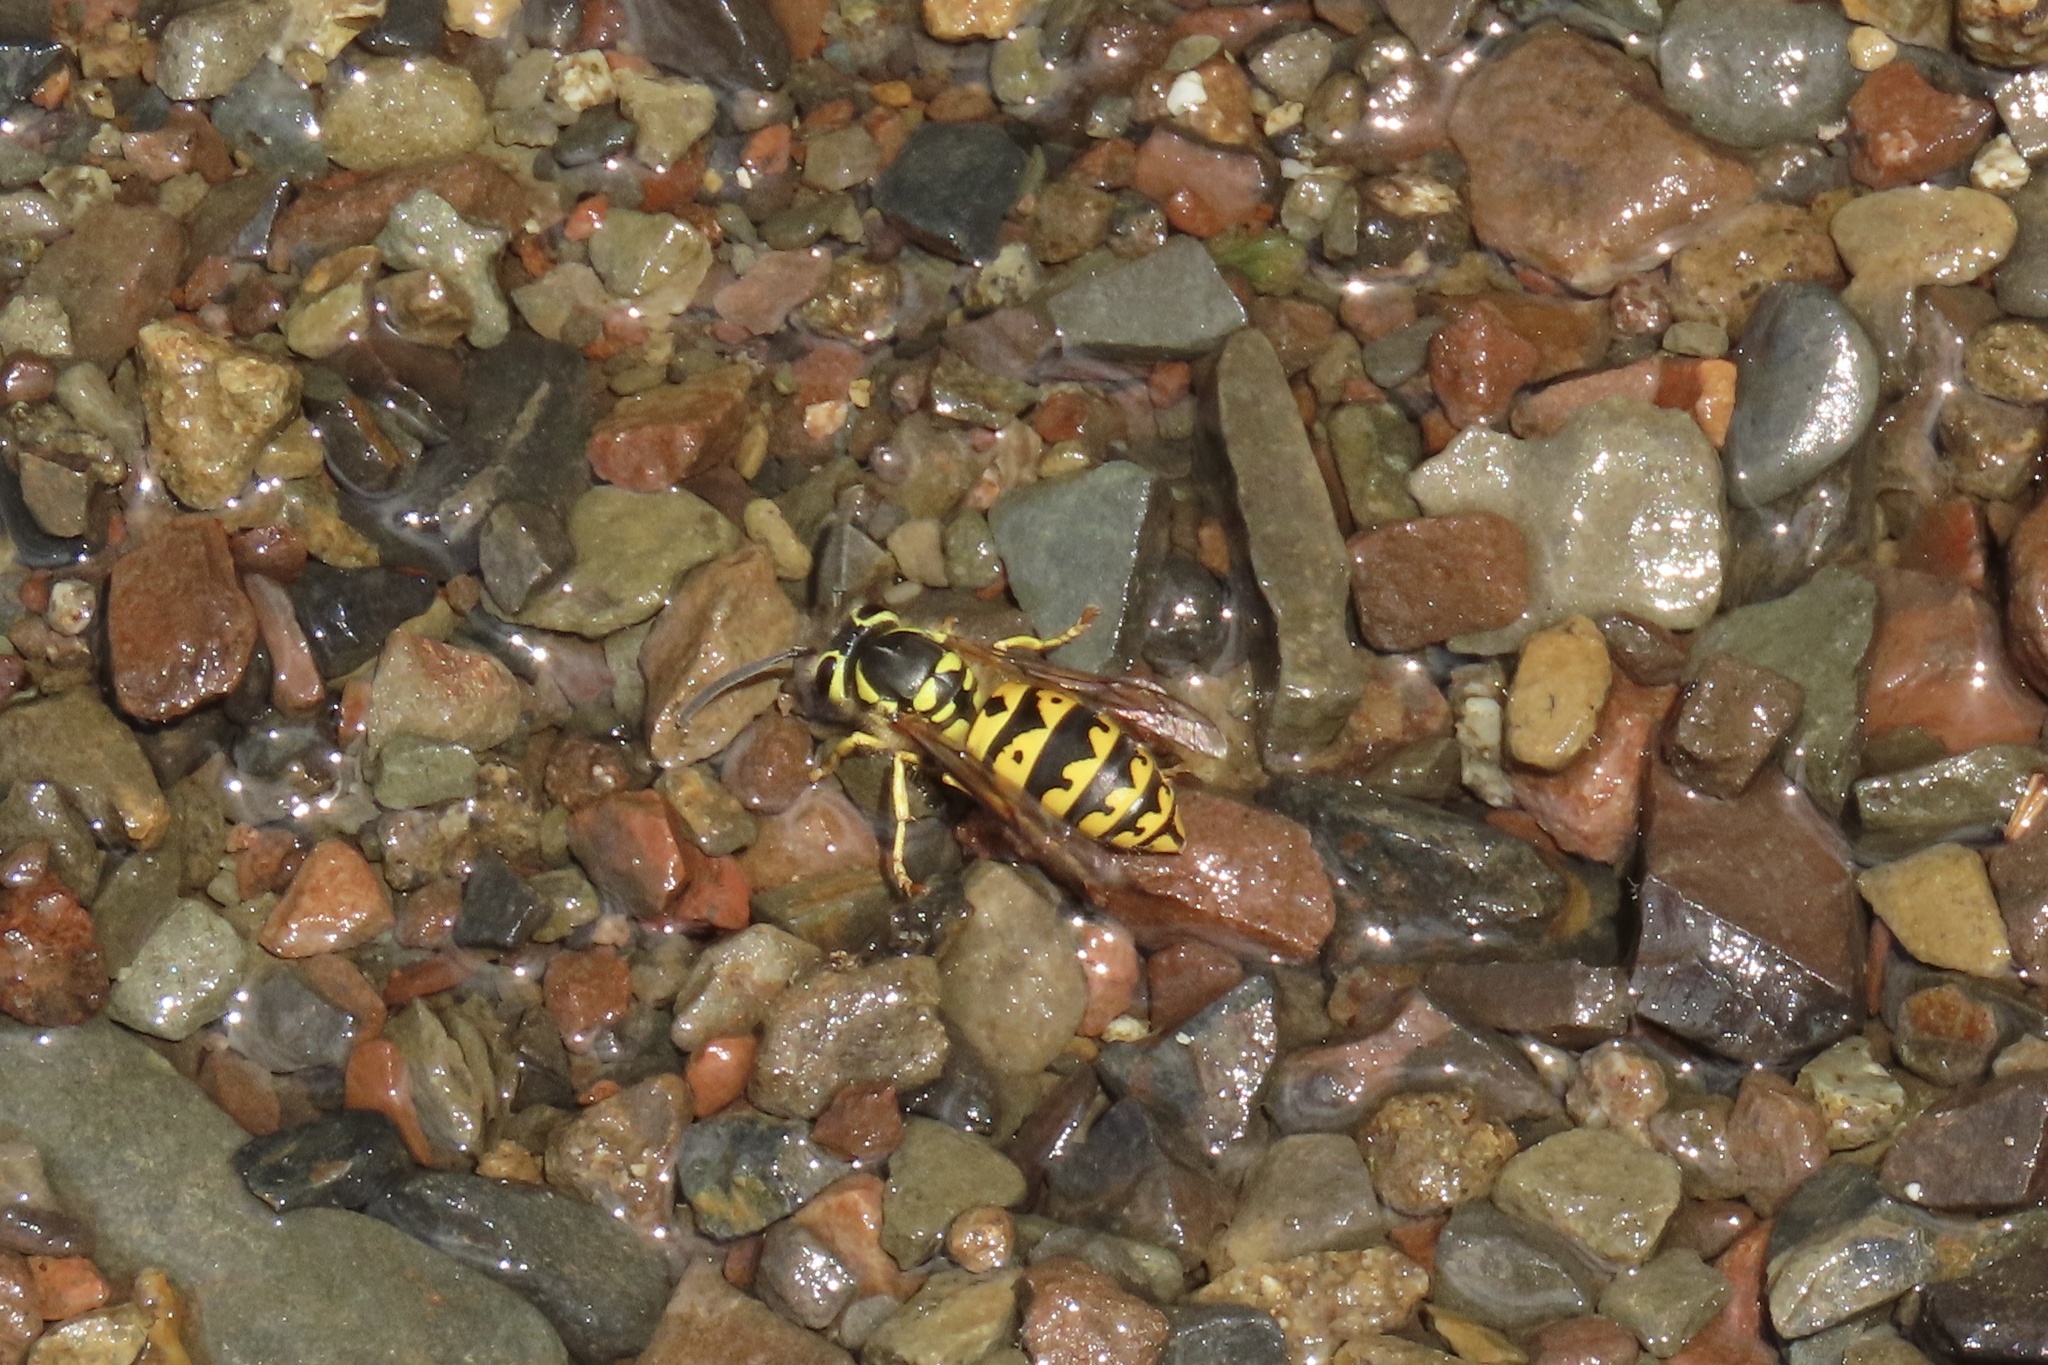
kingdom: Animalia
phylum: Arthropoda
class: Insecta
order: Hymenoptera
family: Vespidae
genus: Vespula
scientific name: Vespula pensylvanica
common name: Western yellowjacket
